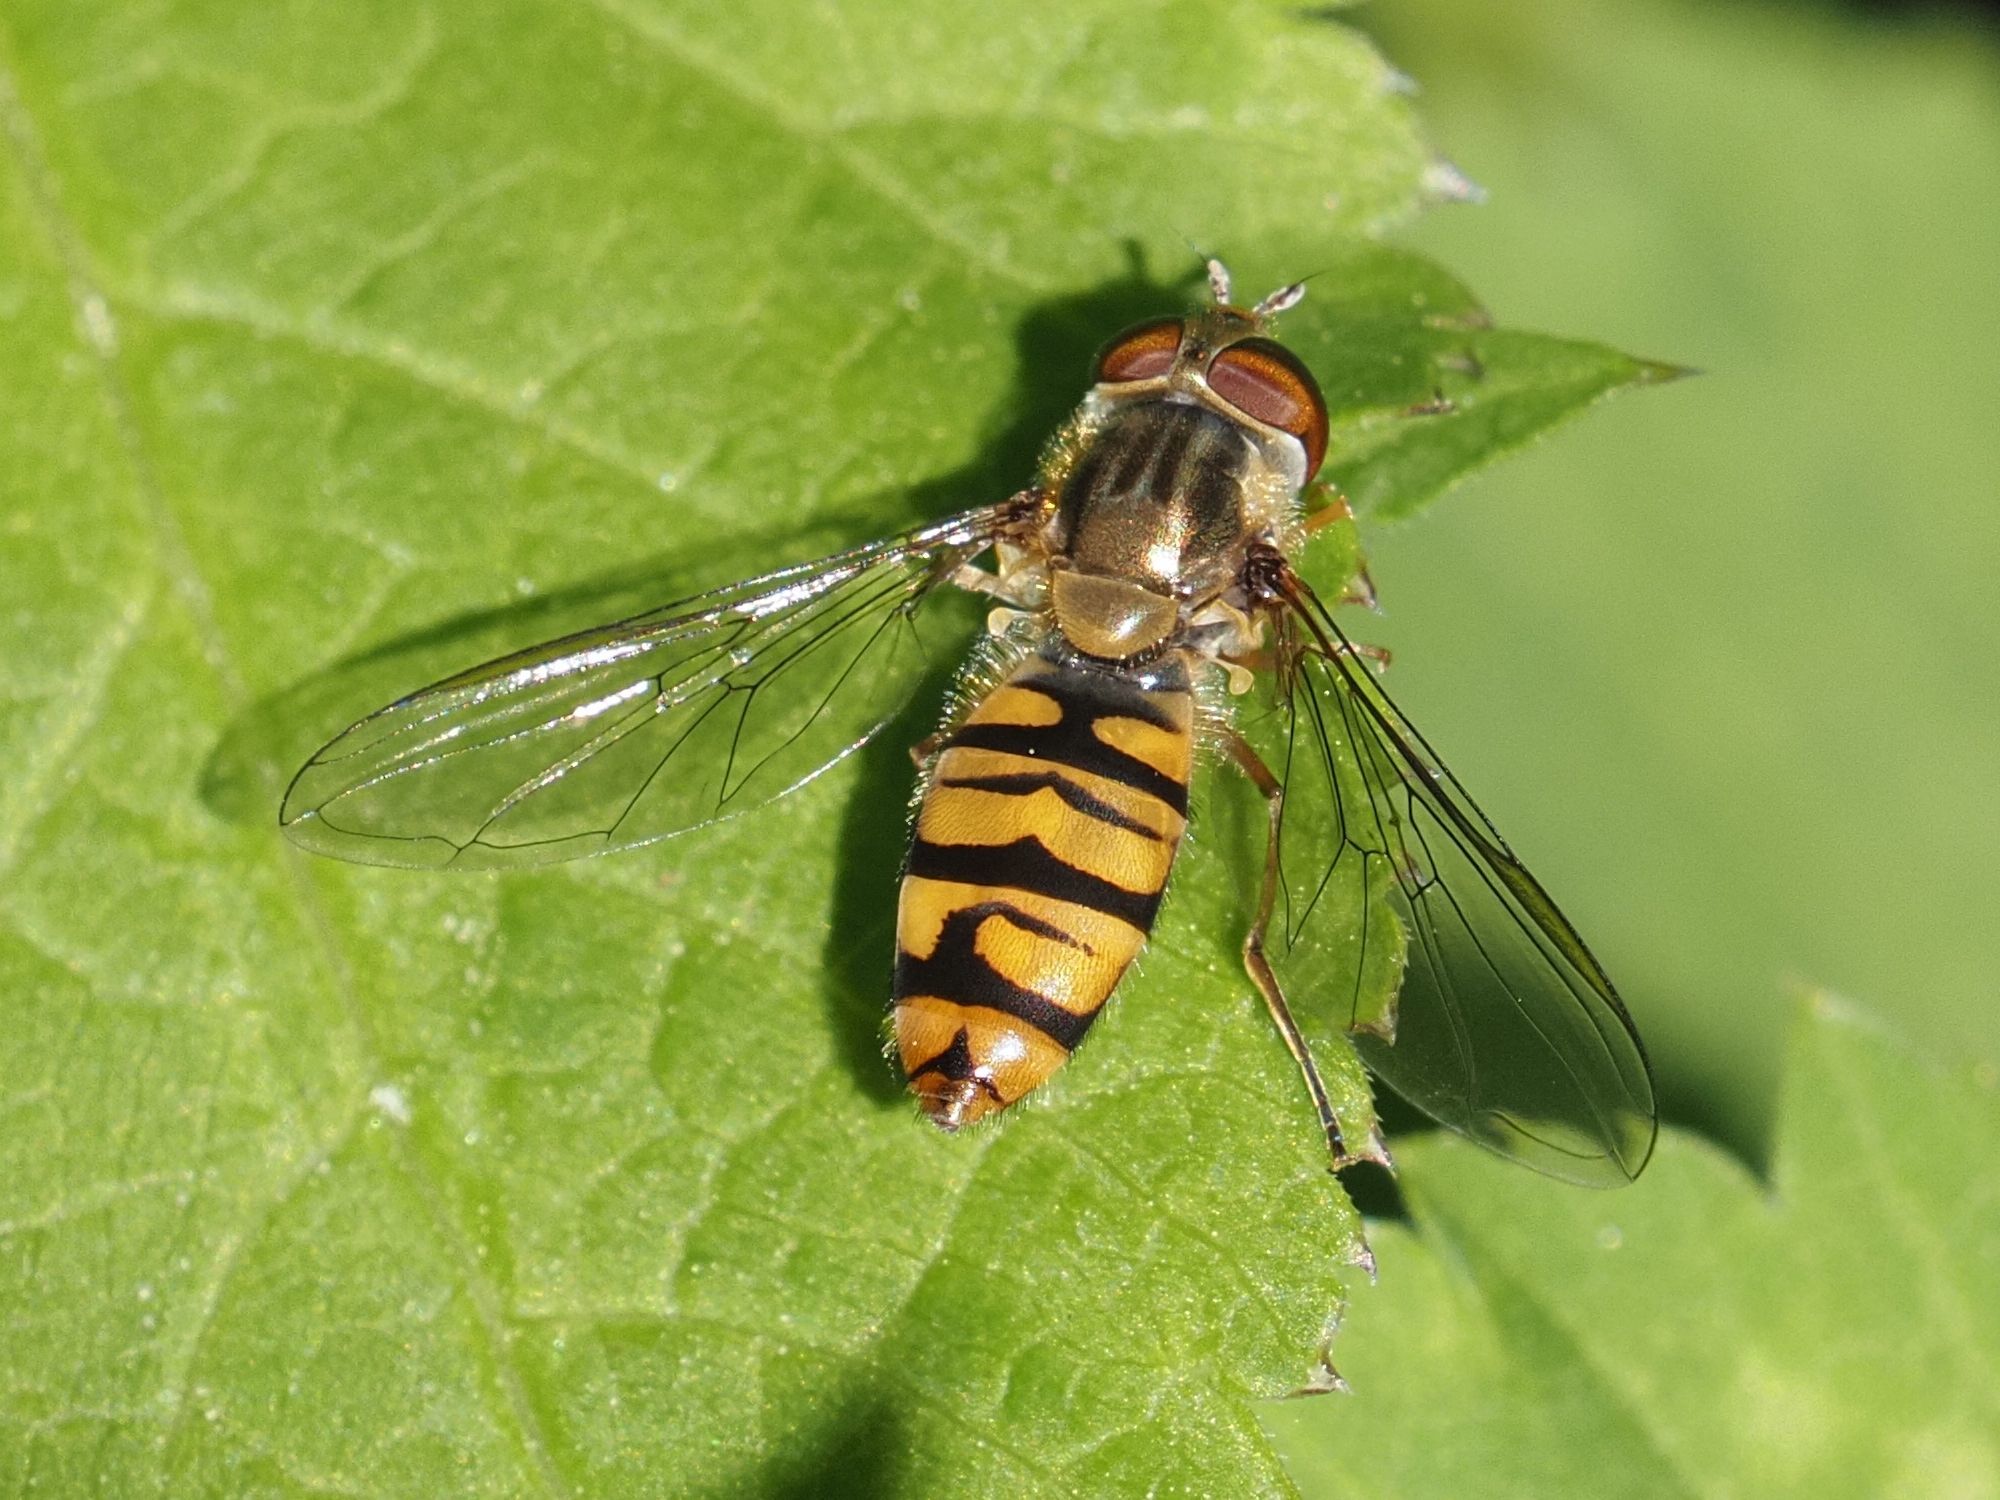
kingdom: Animalia
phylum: Arthropoda
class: Insecta
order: Diptera
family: Syrphidae
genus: Episyrphus
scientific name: Episyrphus balteatus
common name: Marmalade hoverfly
